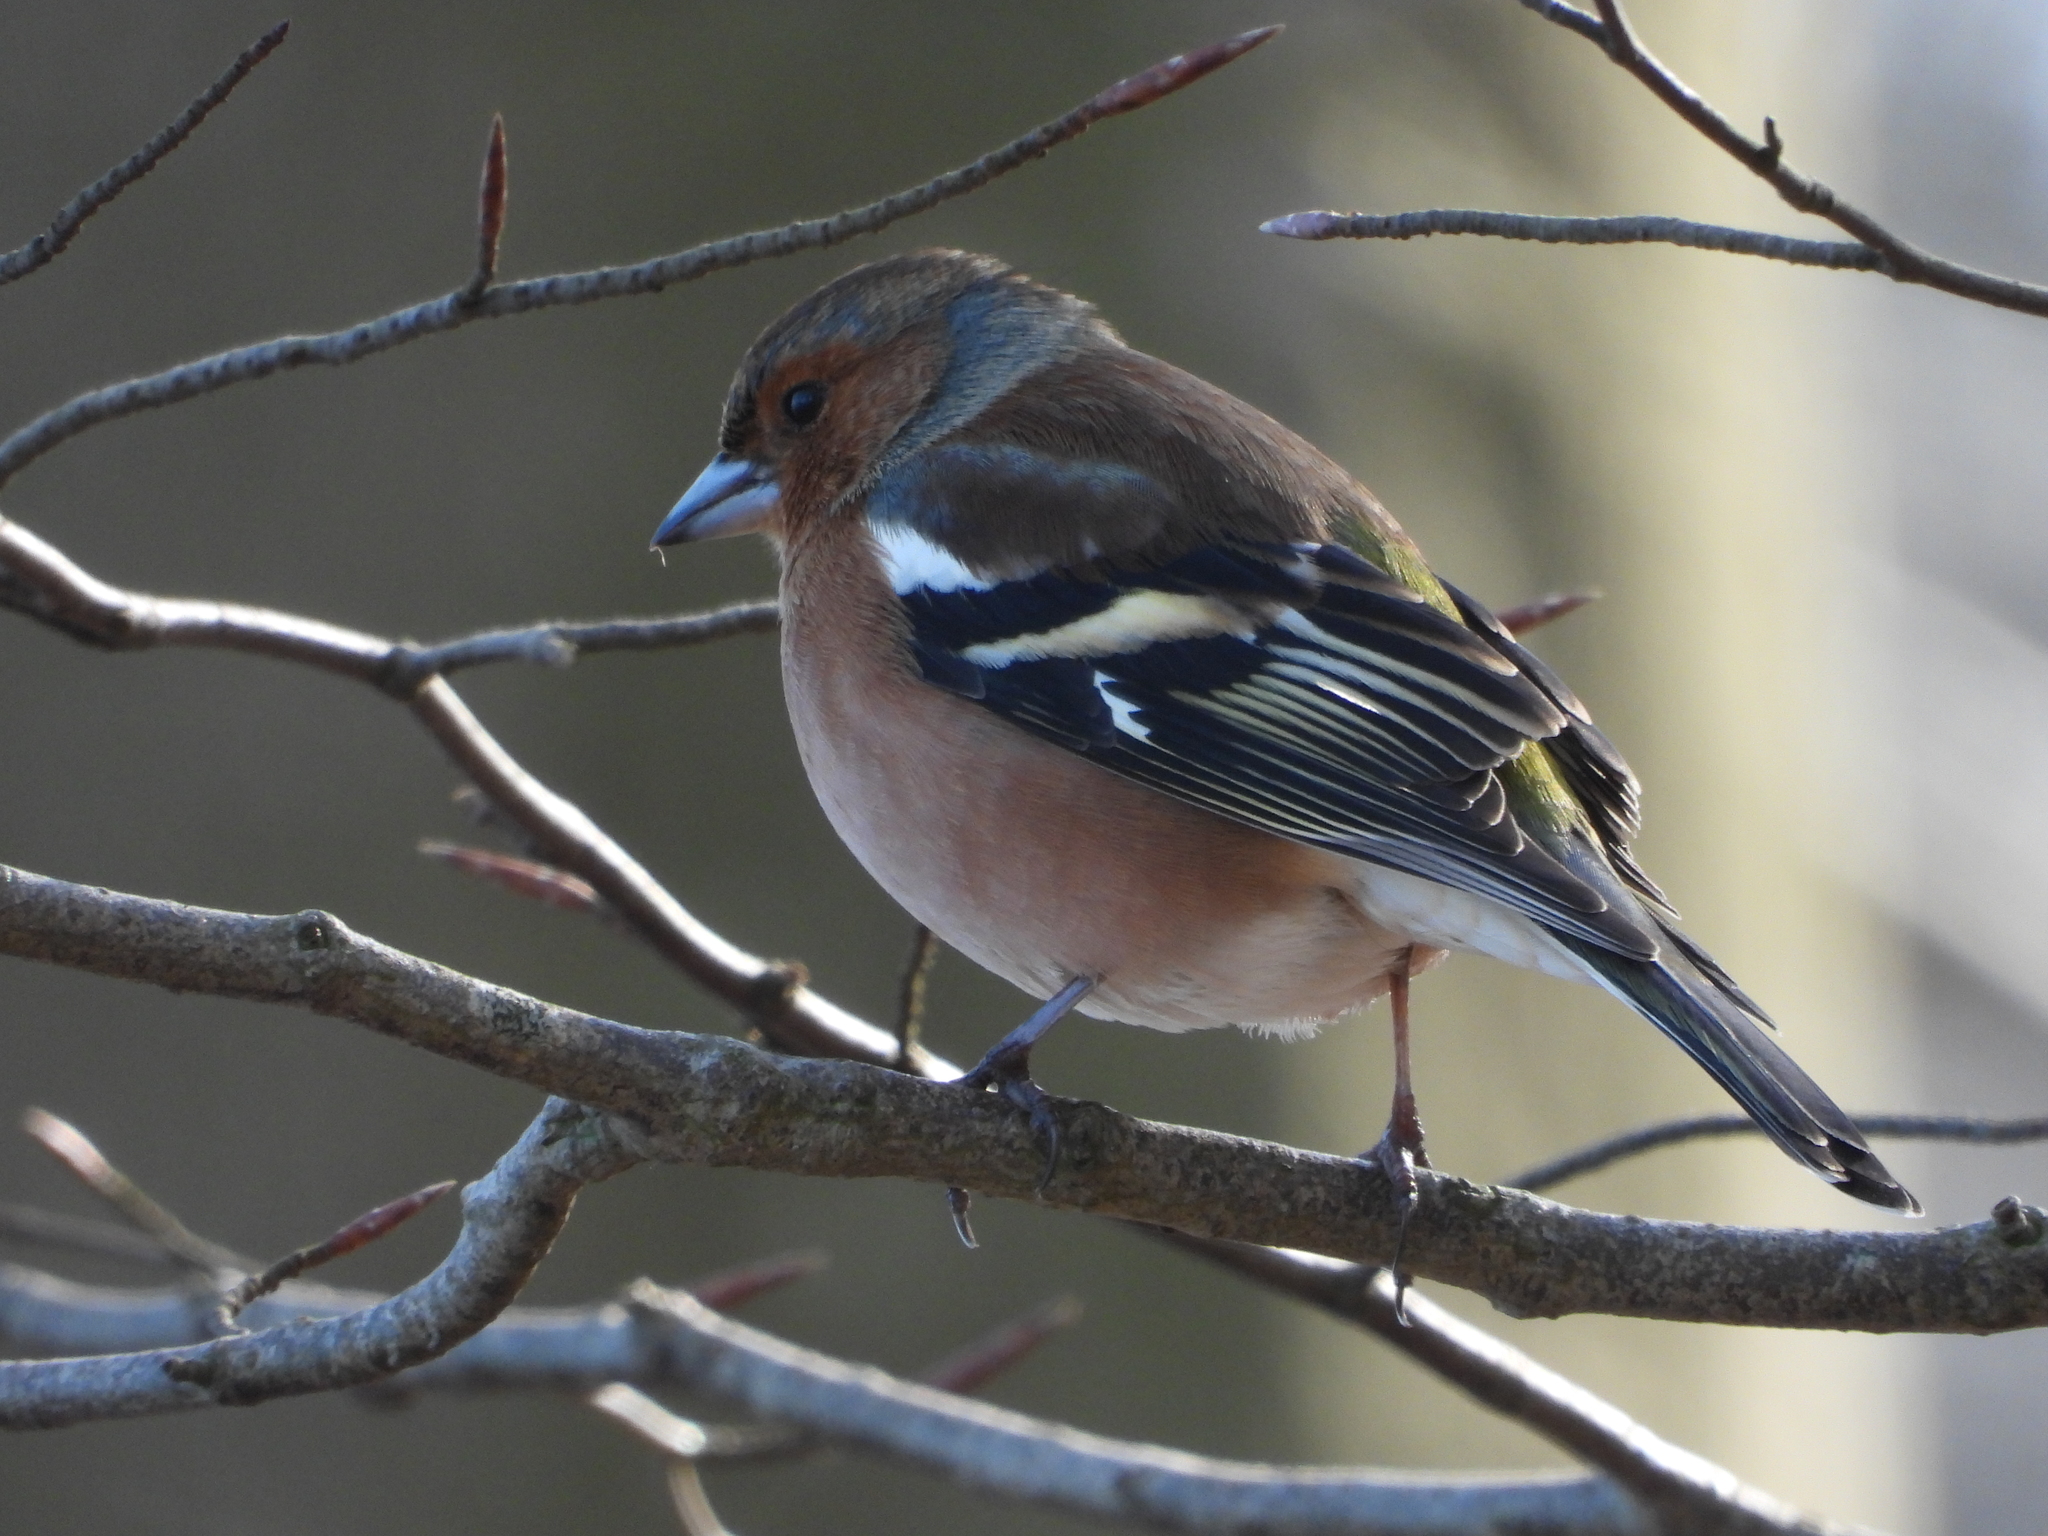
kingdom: Animalia
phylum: Chordata
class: Aves
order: Passeriformes
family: Fringillidae
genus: Fringilla
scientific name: Fringilla coelebs
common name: Common chaffinch
